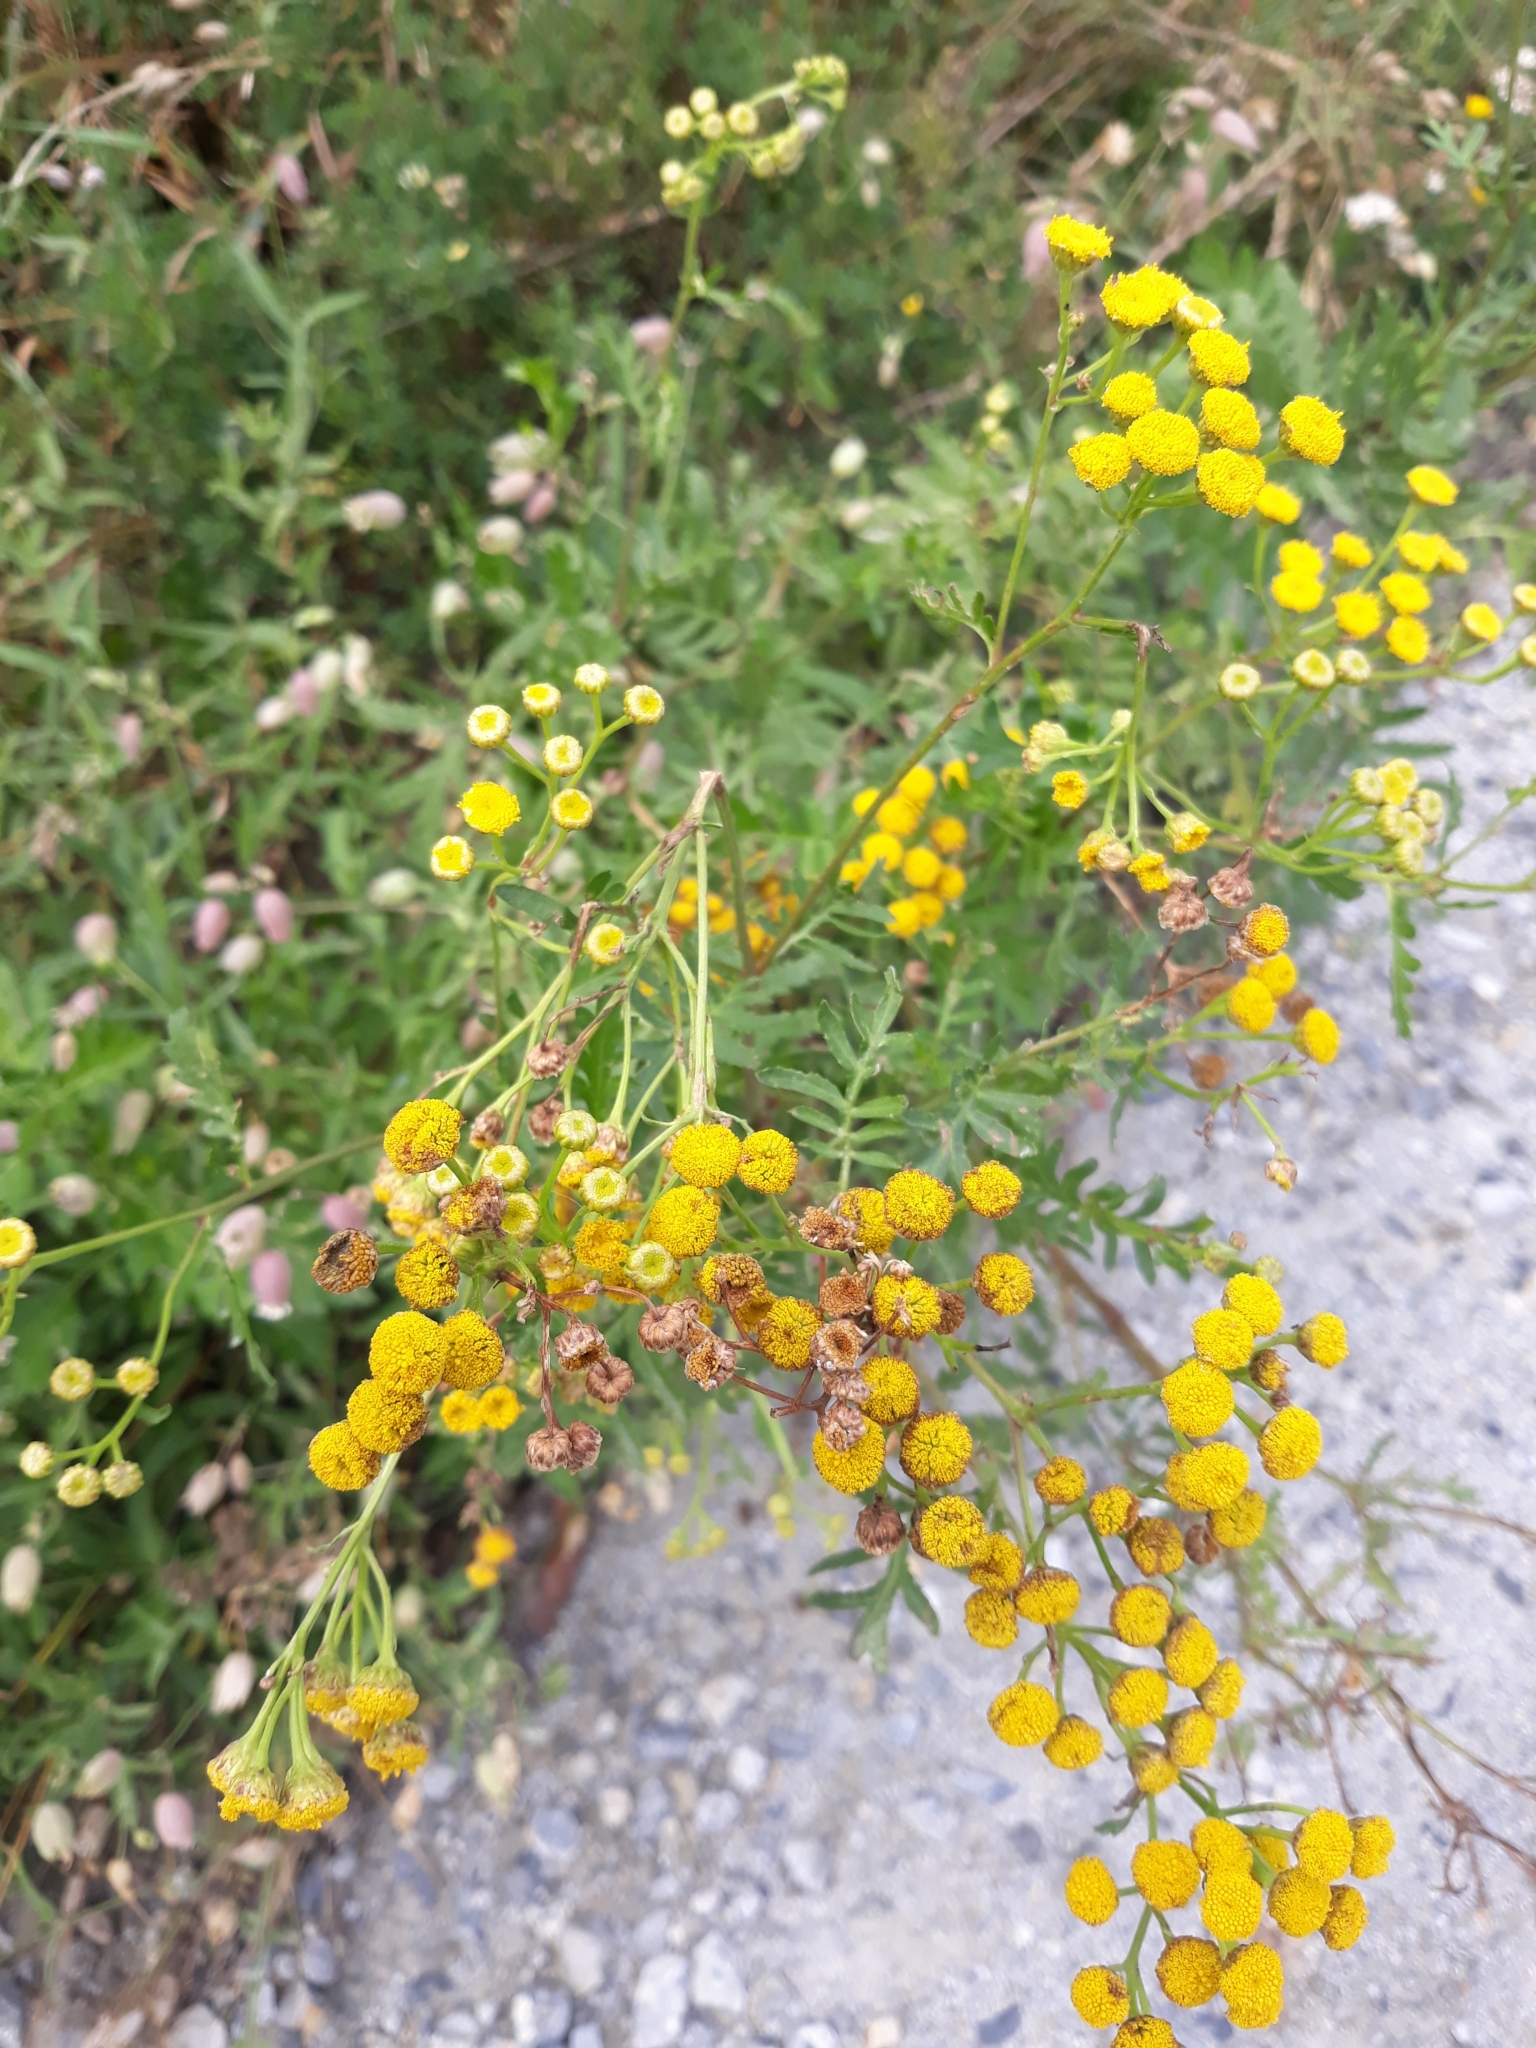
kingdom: Plantae
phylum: Tracheophyta
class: Magnoliopsida
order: Asterales
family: Asteraceae
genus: Tanacetum
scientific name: Tanacetum vulgare
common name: Common tansy
